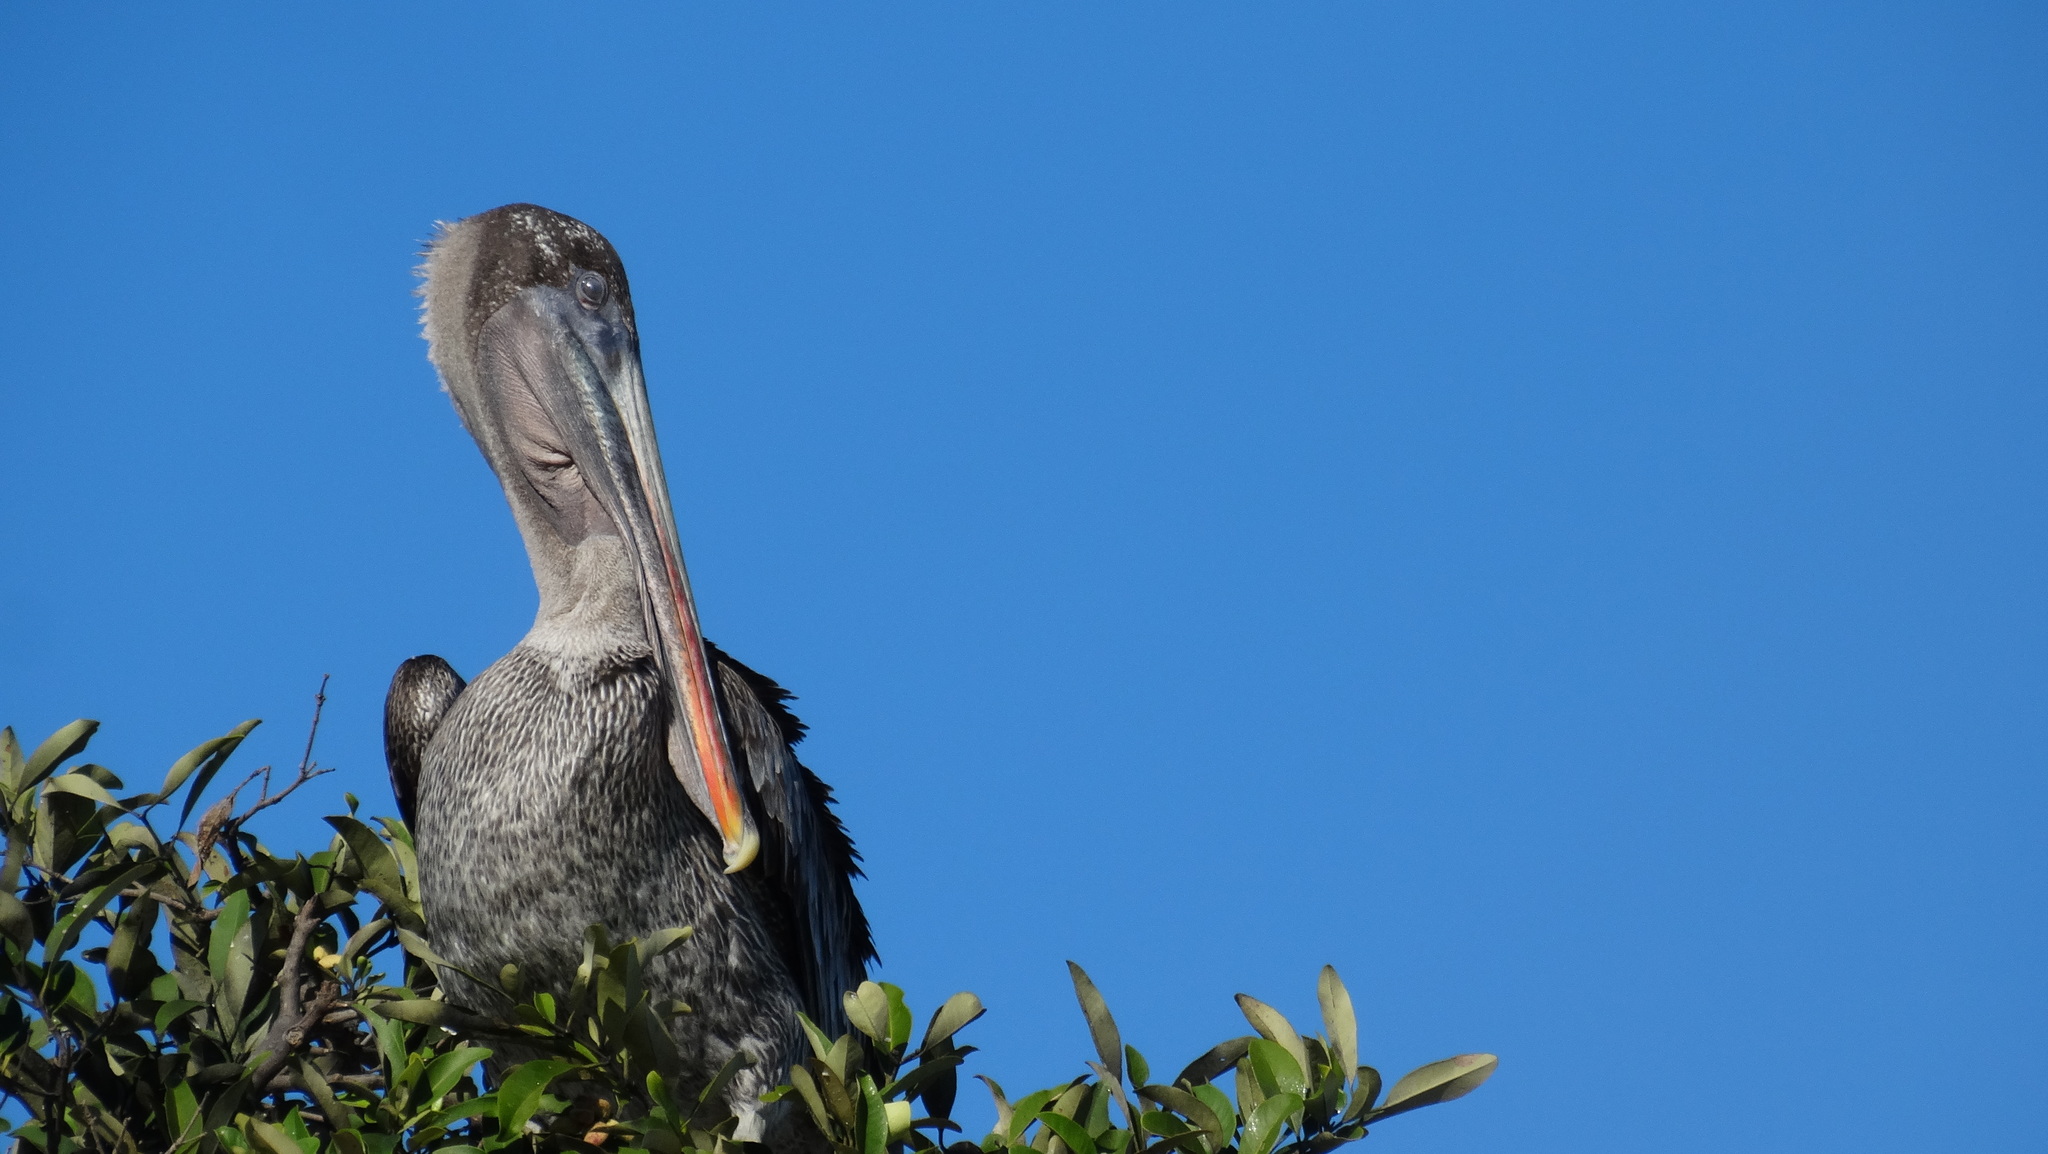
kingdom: Animalia
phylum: Chordata
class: Aves
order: Pelecaniformes
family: Pelecanidae
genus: Pelecanus
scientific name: Pelecanus occidentalis
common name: Brown pelican
